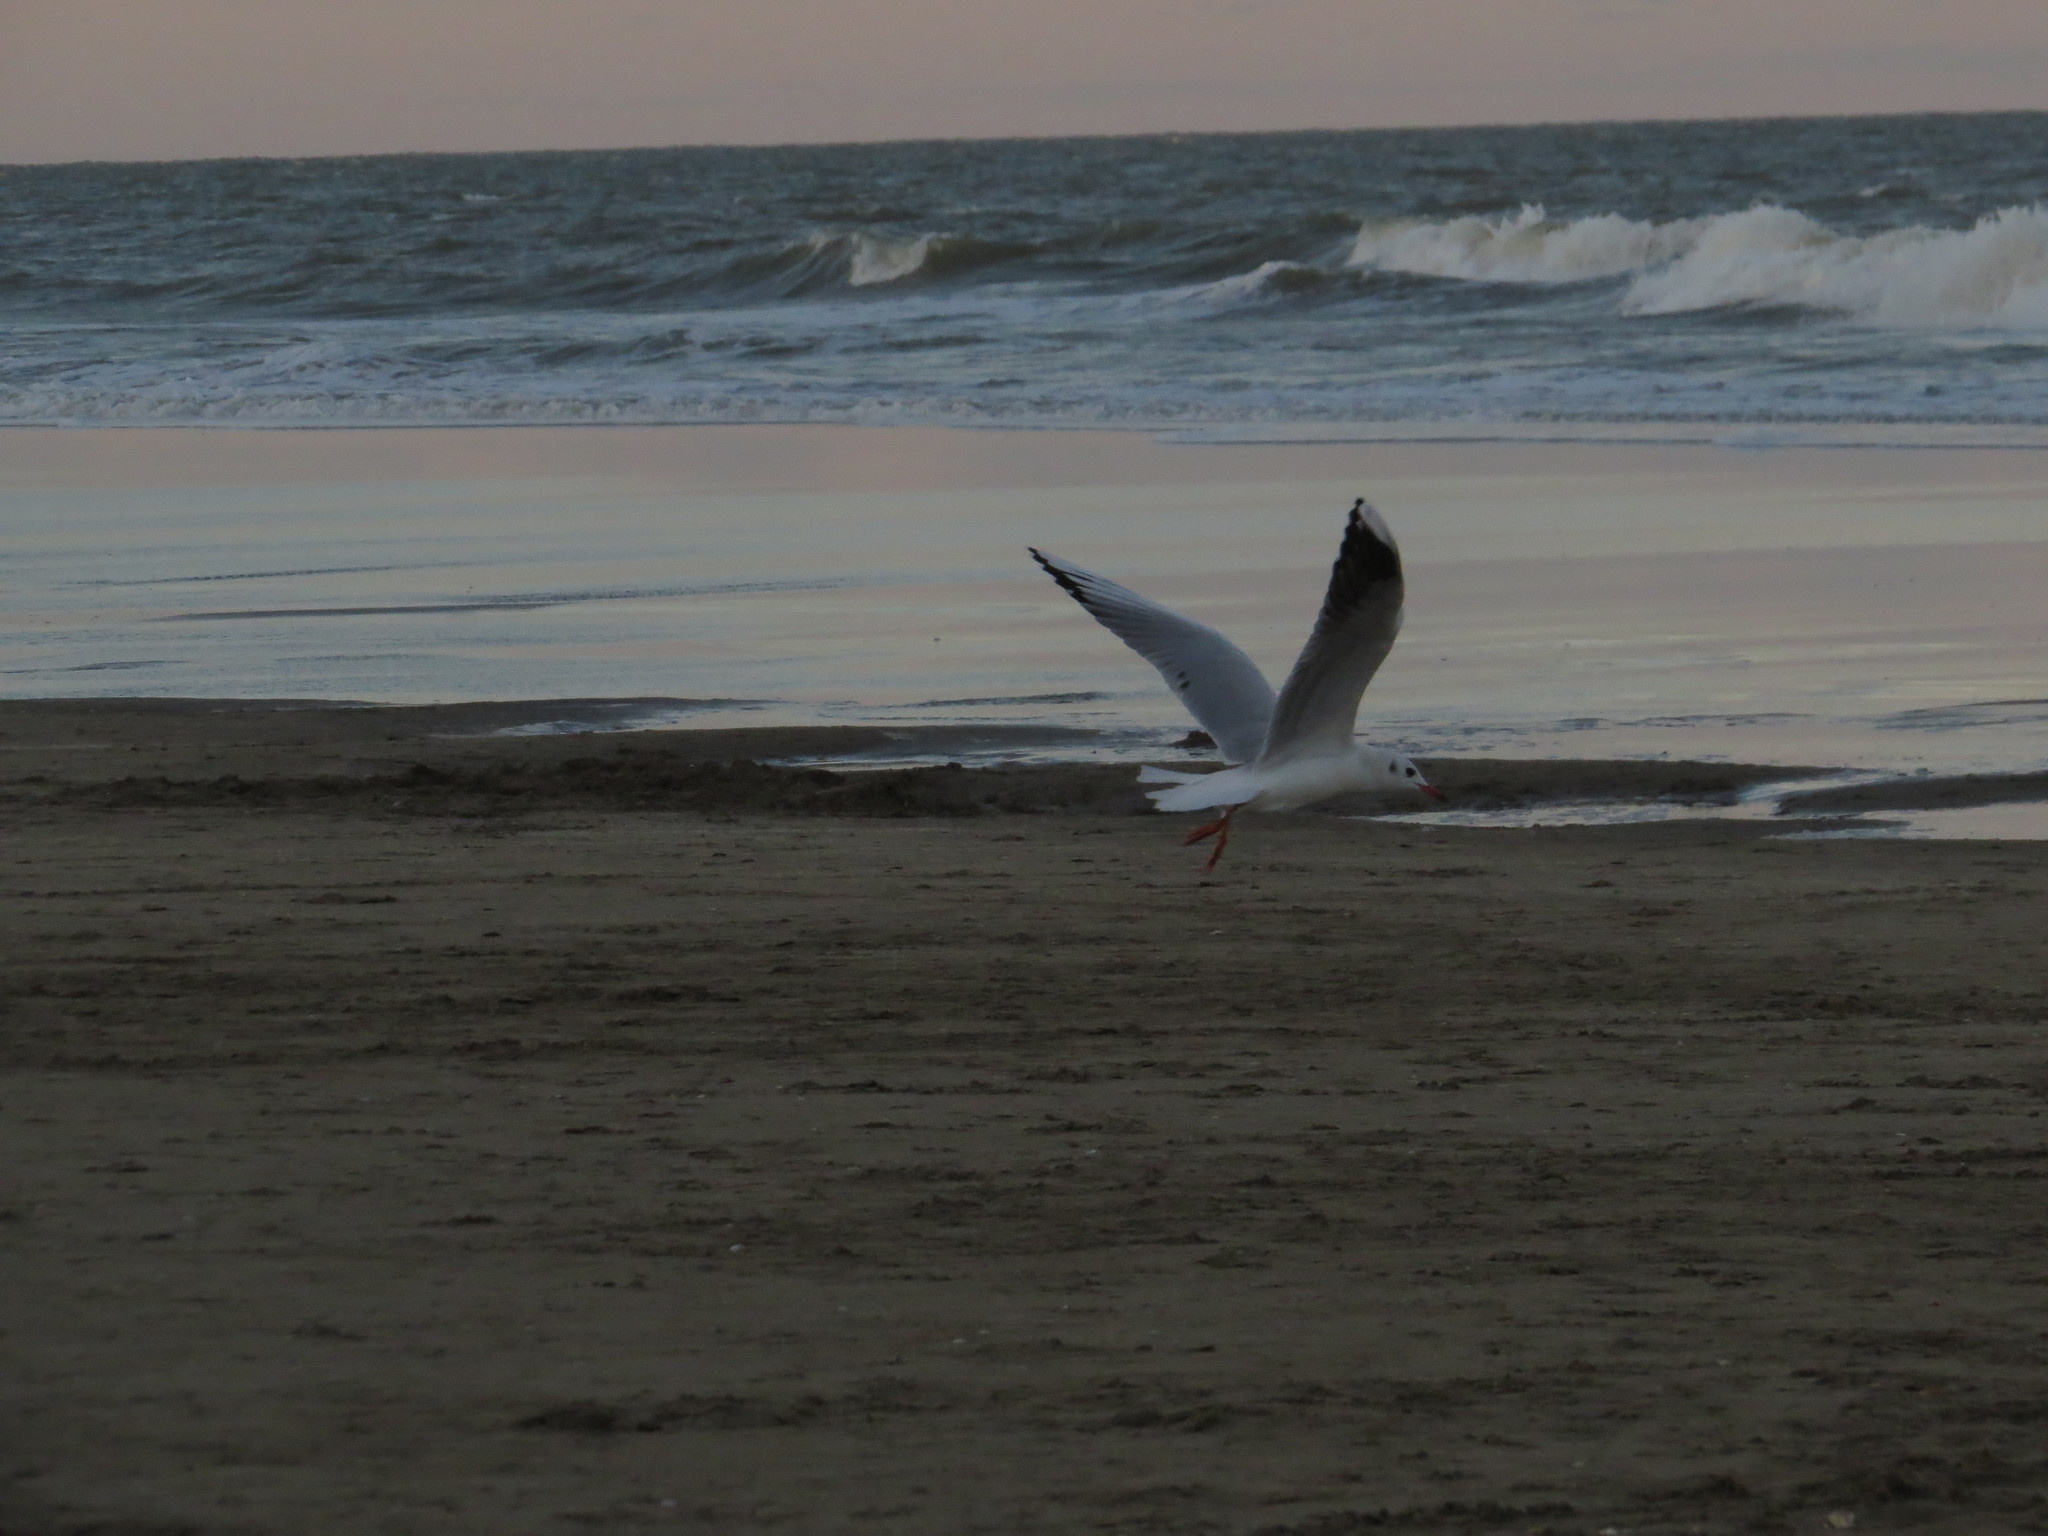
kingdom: Animalia
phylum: Chordata
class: Aves
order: Charadriiformes
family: Laridae
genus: Chroicocephalus
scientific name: Chroicocephalus maculipennis
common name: Brown-hooded gull
